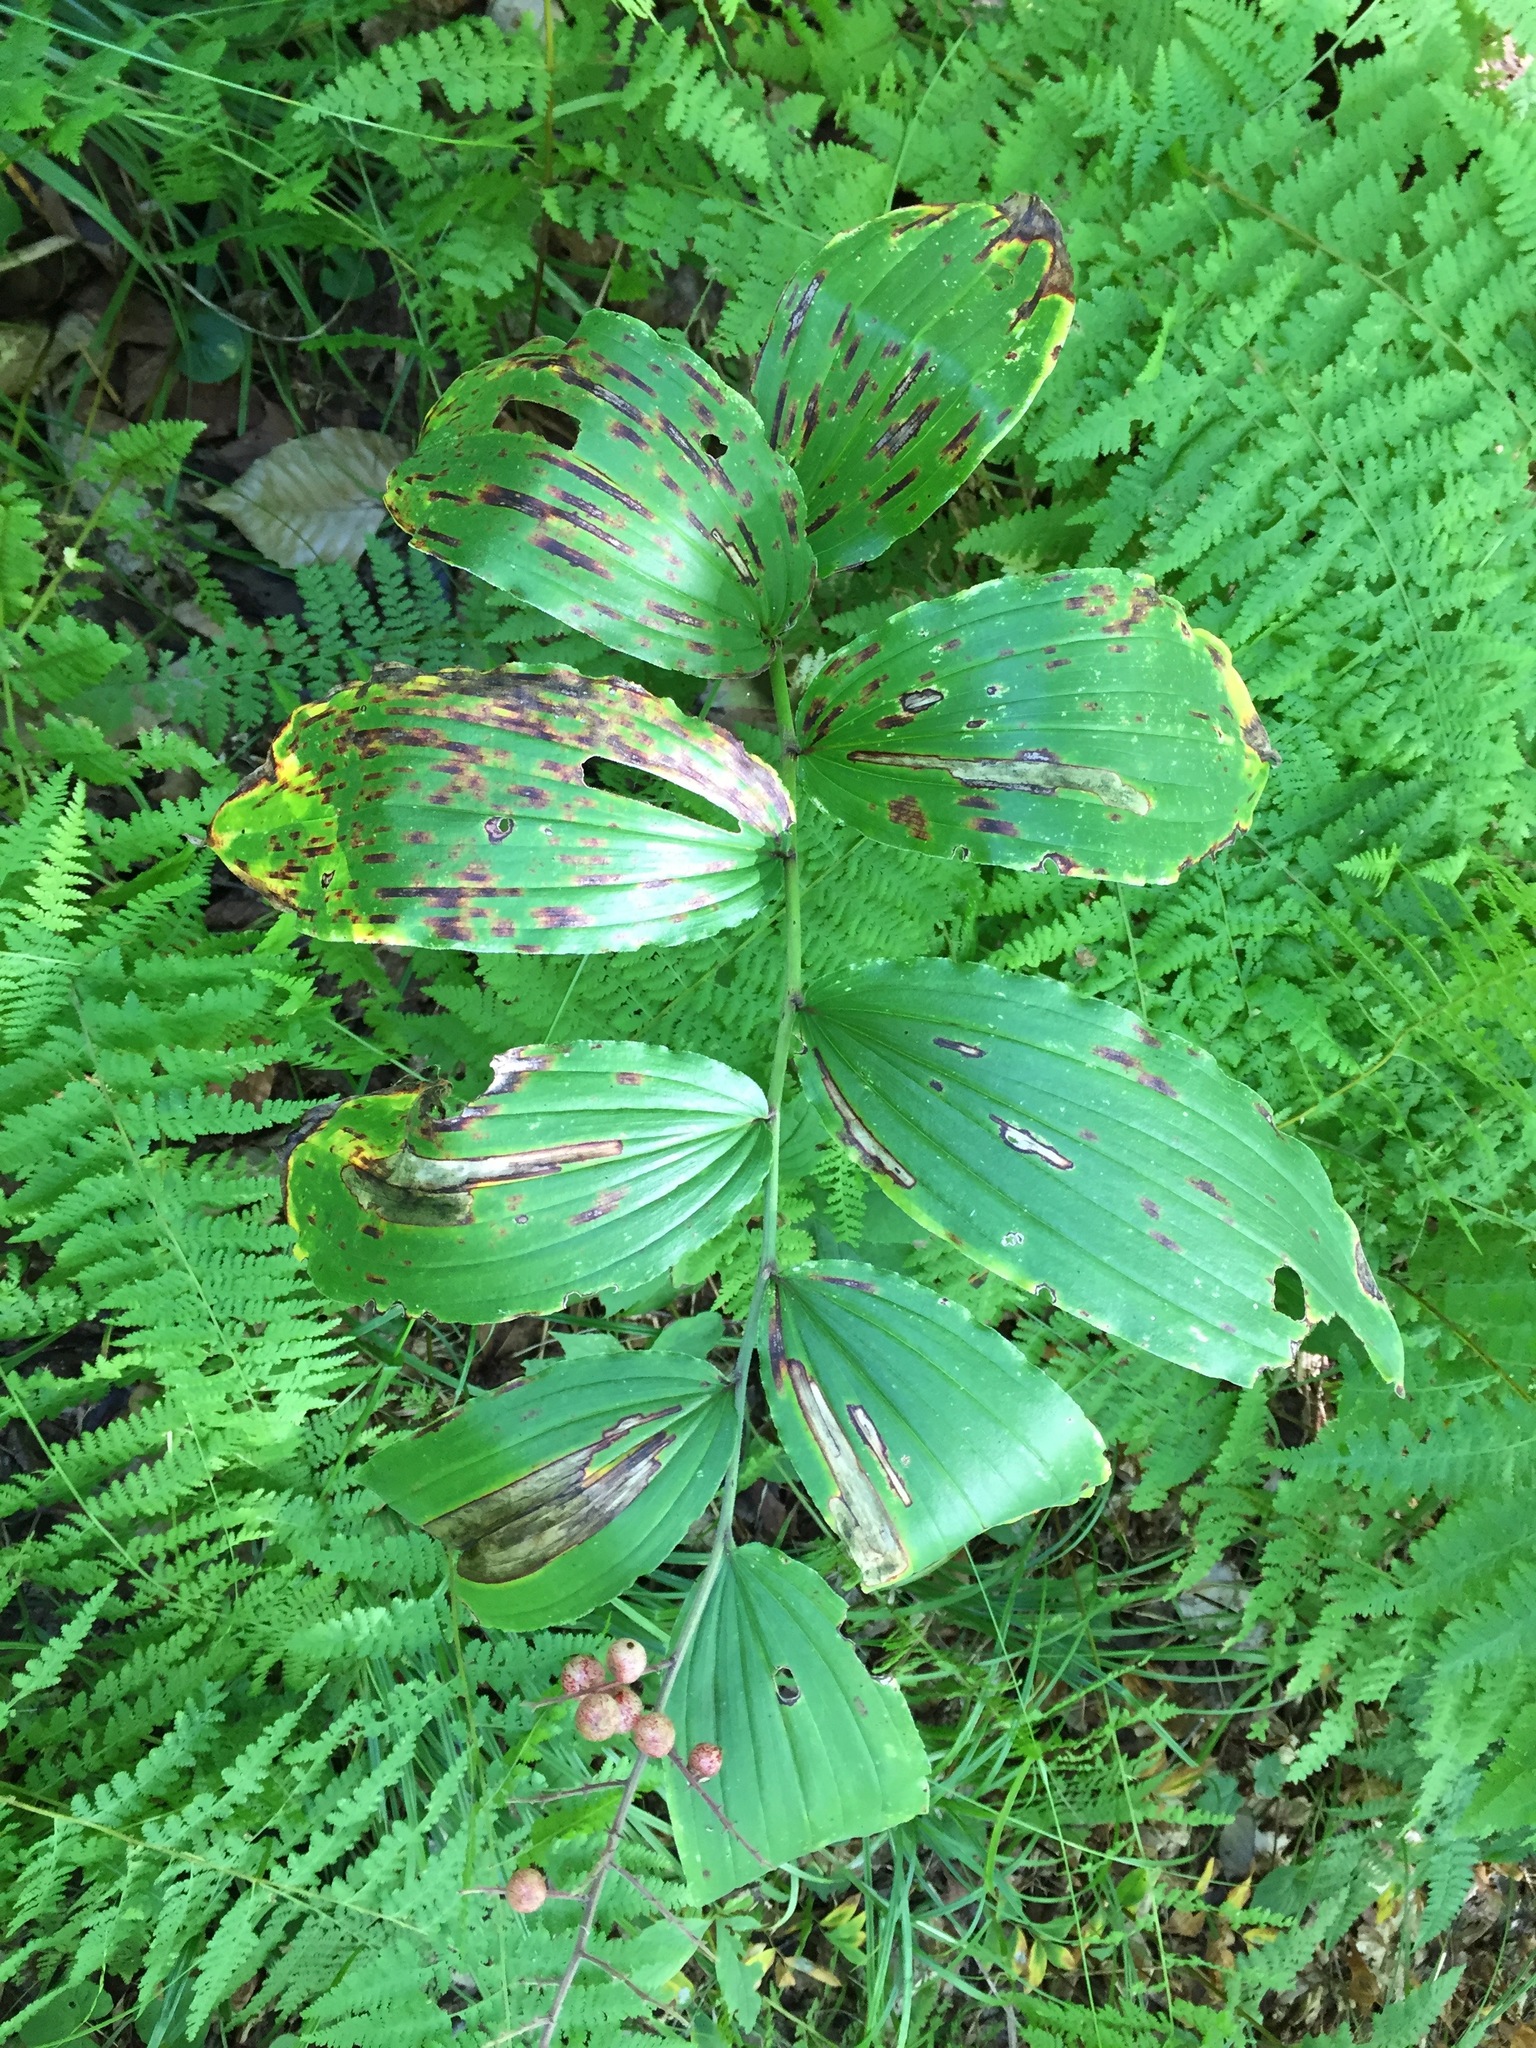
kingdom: Plantae
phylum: Tracheophyta
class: Liliopsida
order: Asparagales
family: Asparagaceae
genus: Maianthemum
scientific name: Maianthemum racemosum
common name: False spikenard
